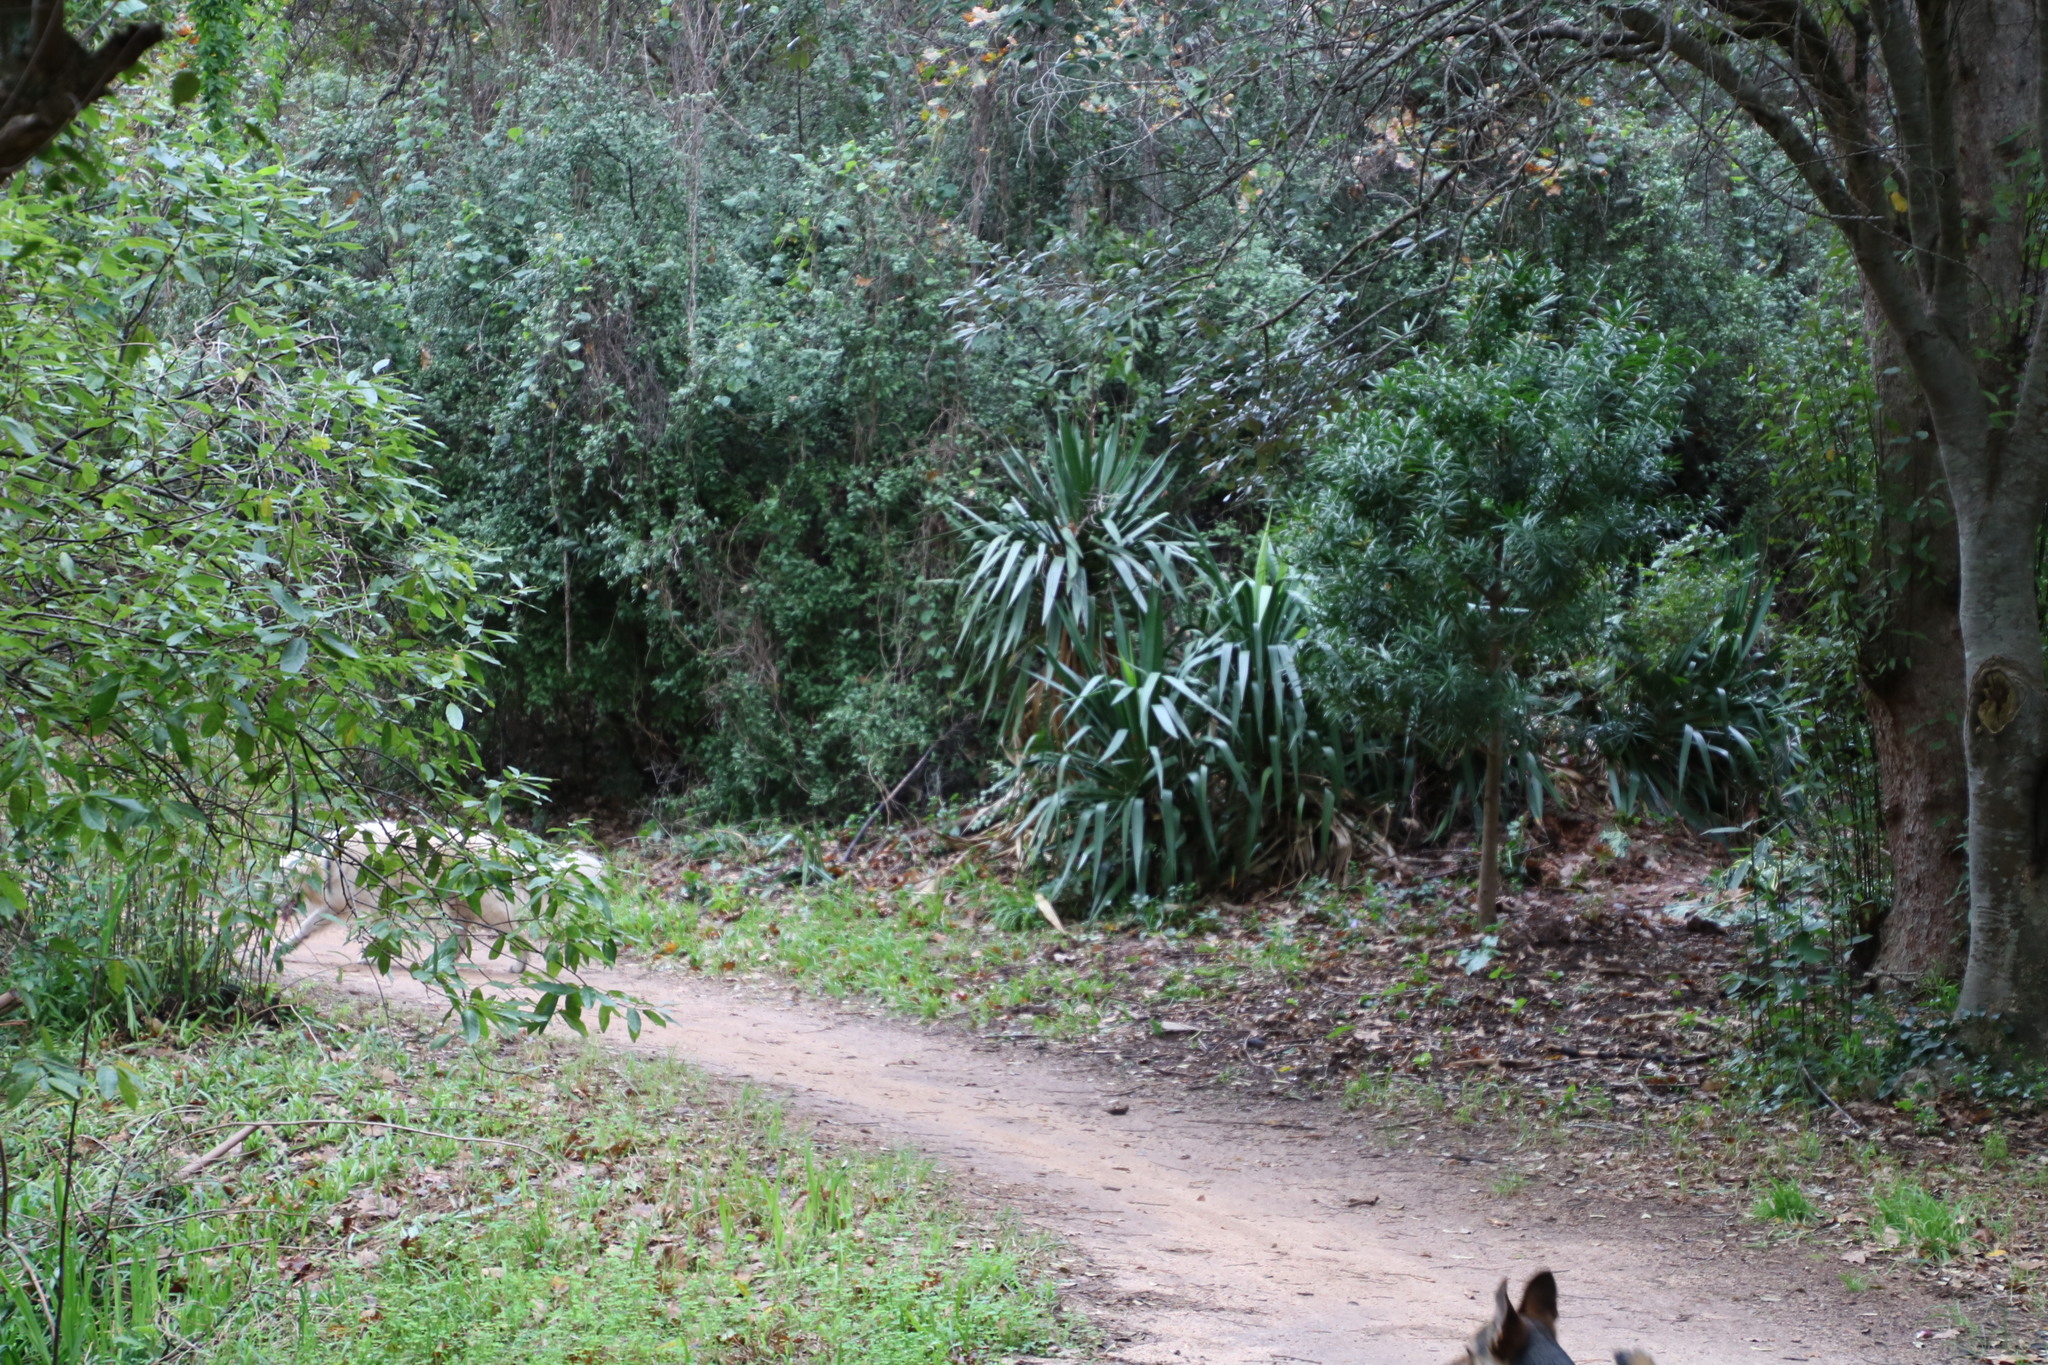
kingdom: Plantae
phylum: Tracheophyta
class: Liliopsida
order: Asparagales
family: Asparagaceae
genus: Yucca
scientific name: Yucca gloriosa
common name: Spanish-dagger
